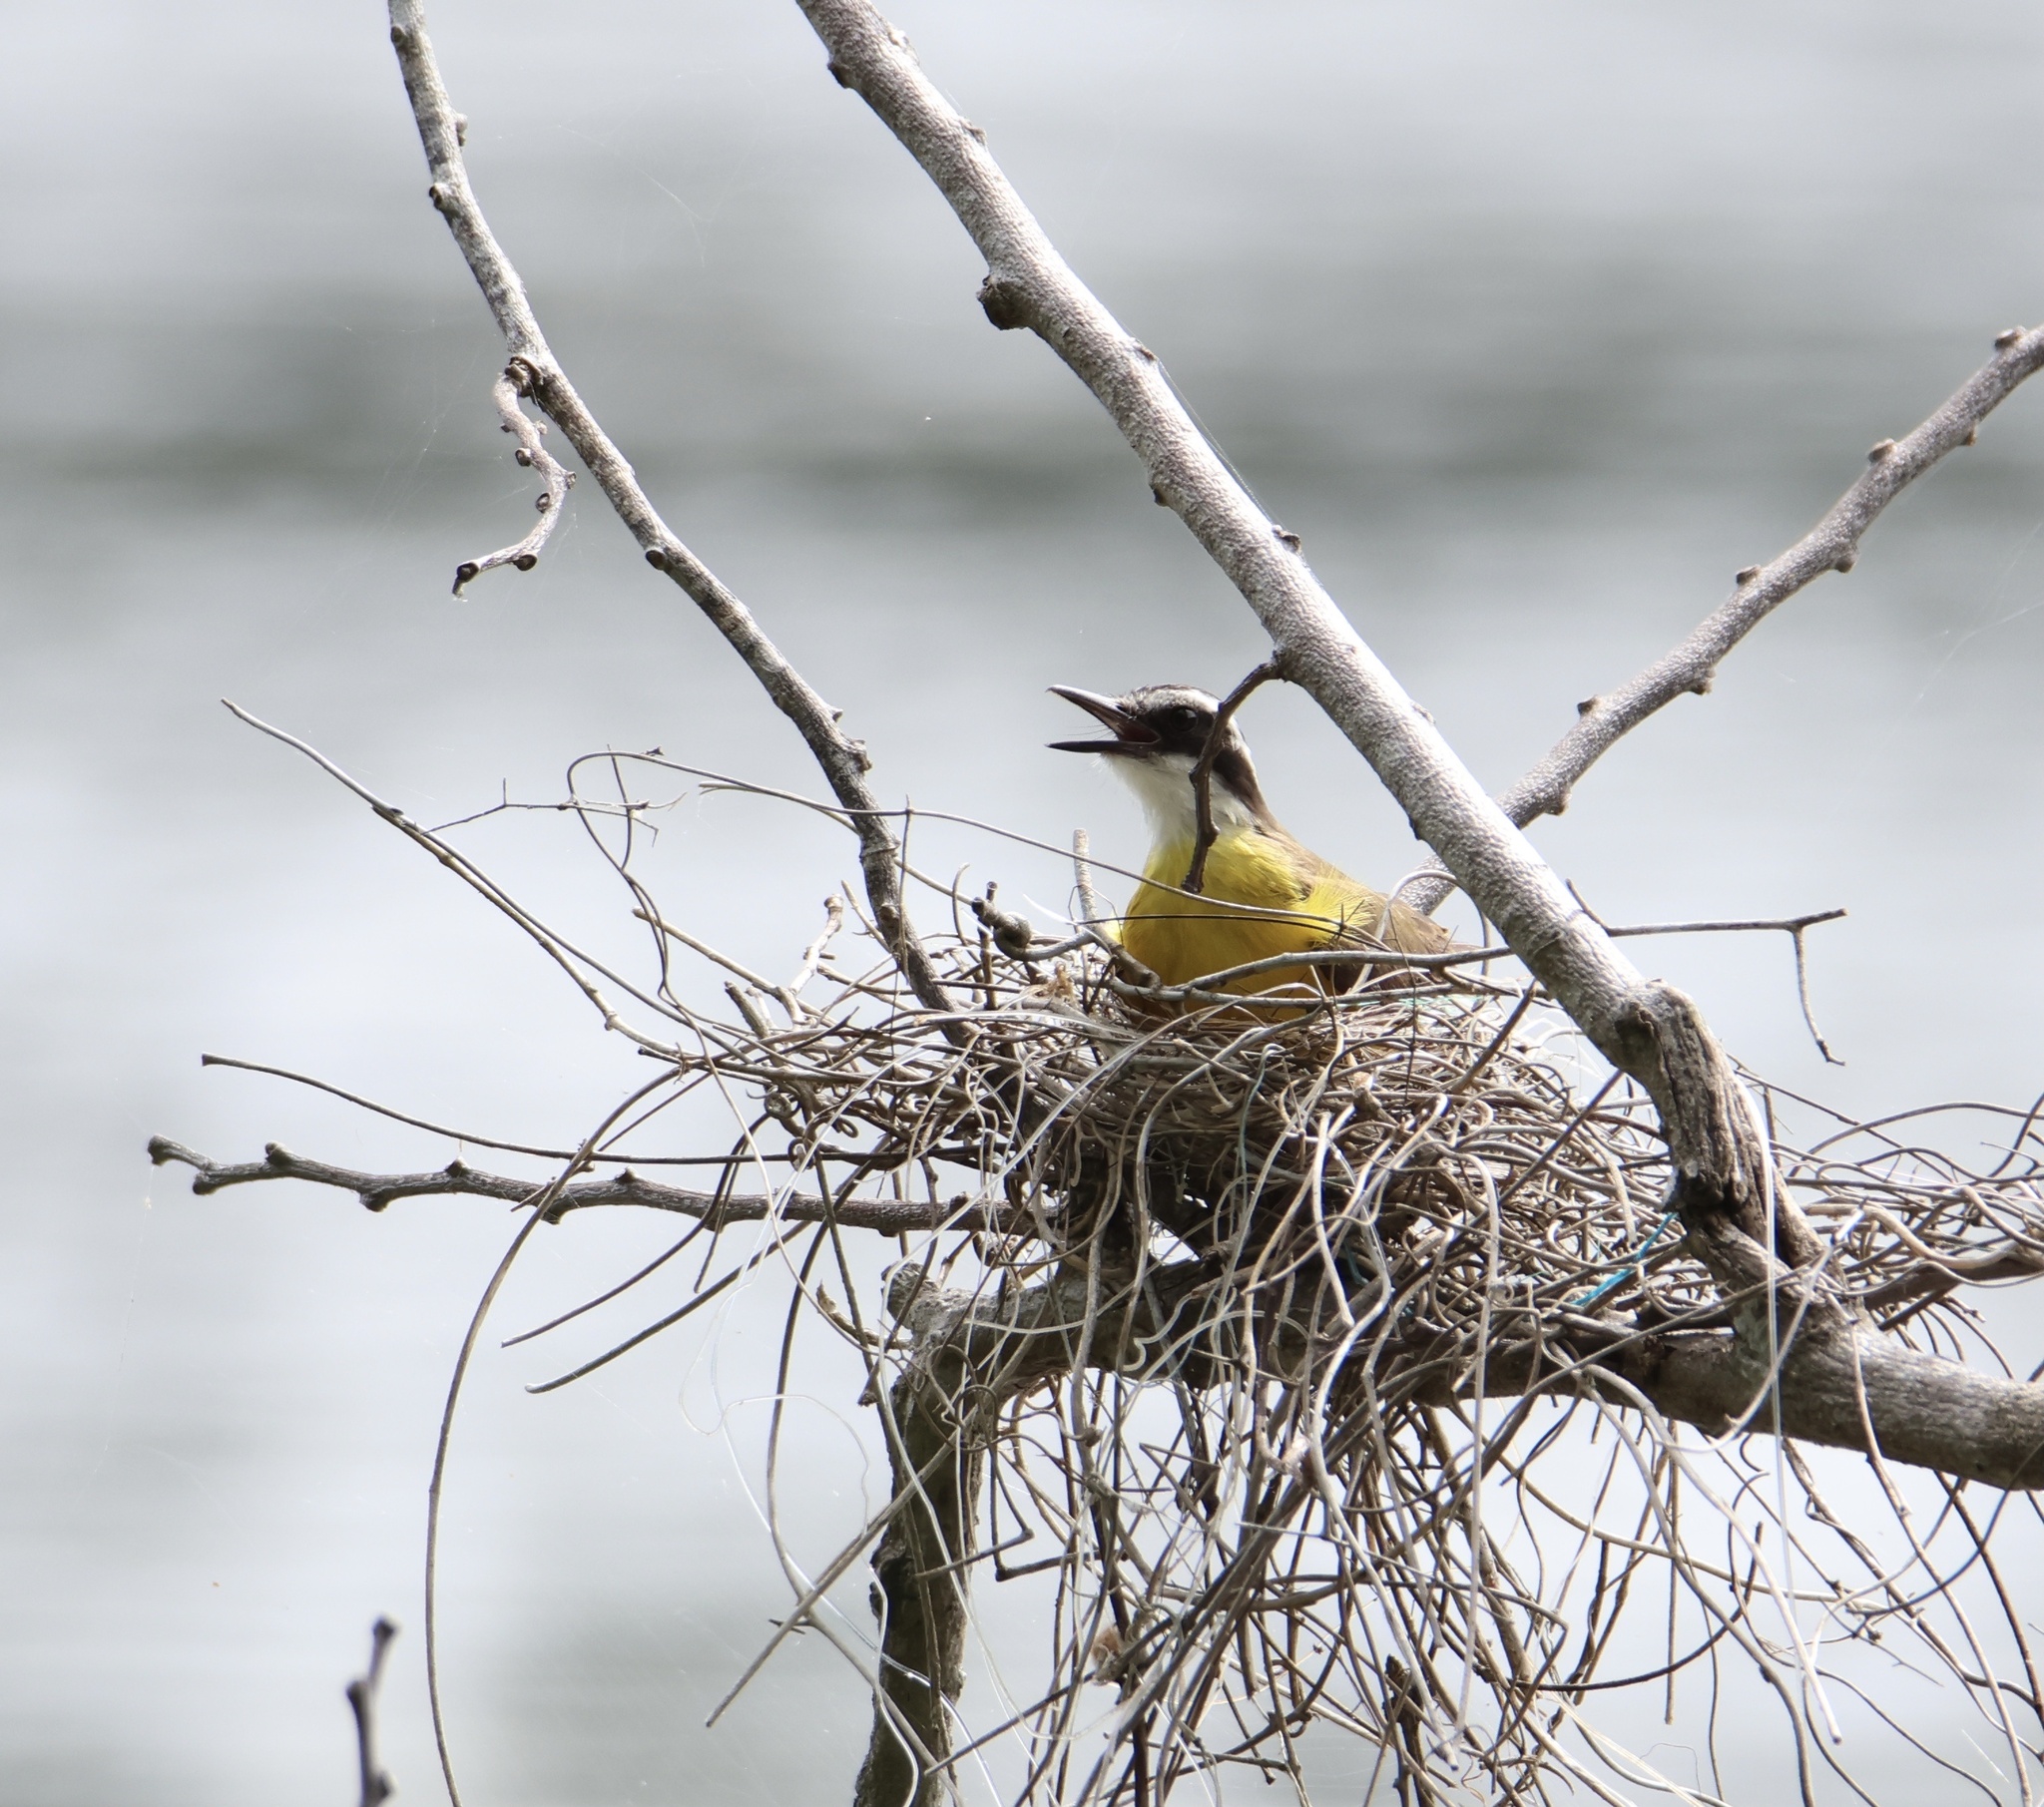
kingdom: Animalia
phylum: Chordata
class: Aves
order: Passeriformes
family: Tyrannidae
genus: Pitangus
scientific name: Pitangus sulphuratus
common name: Great kiskadee
